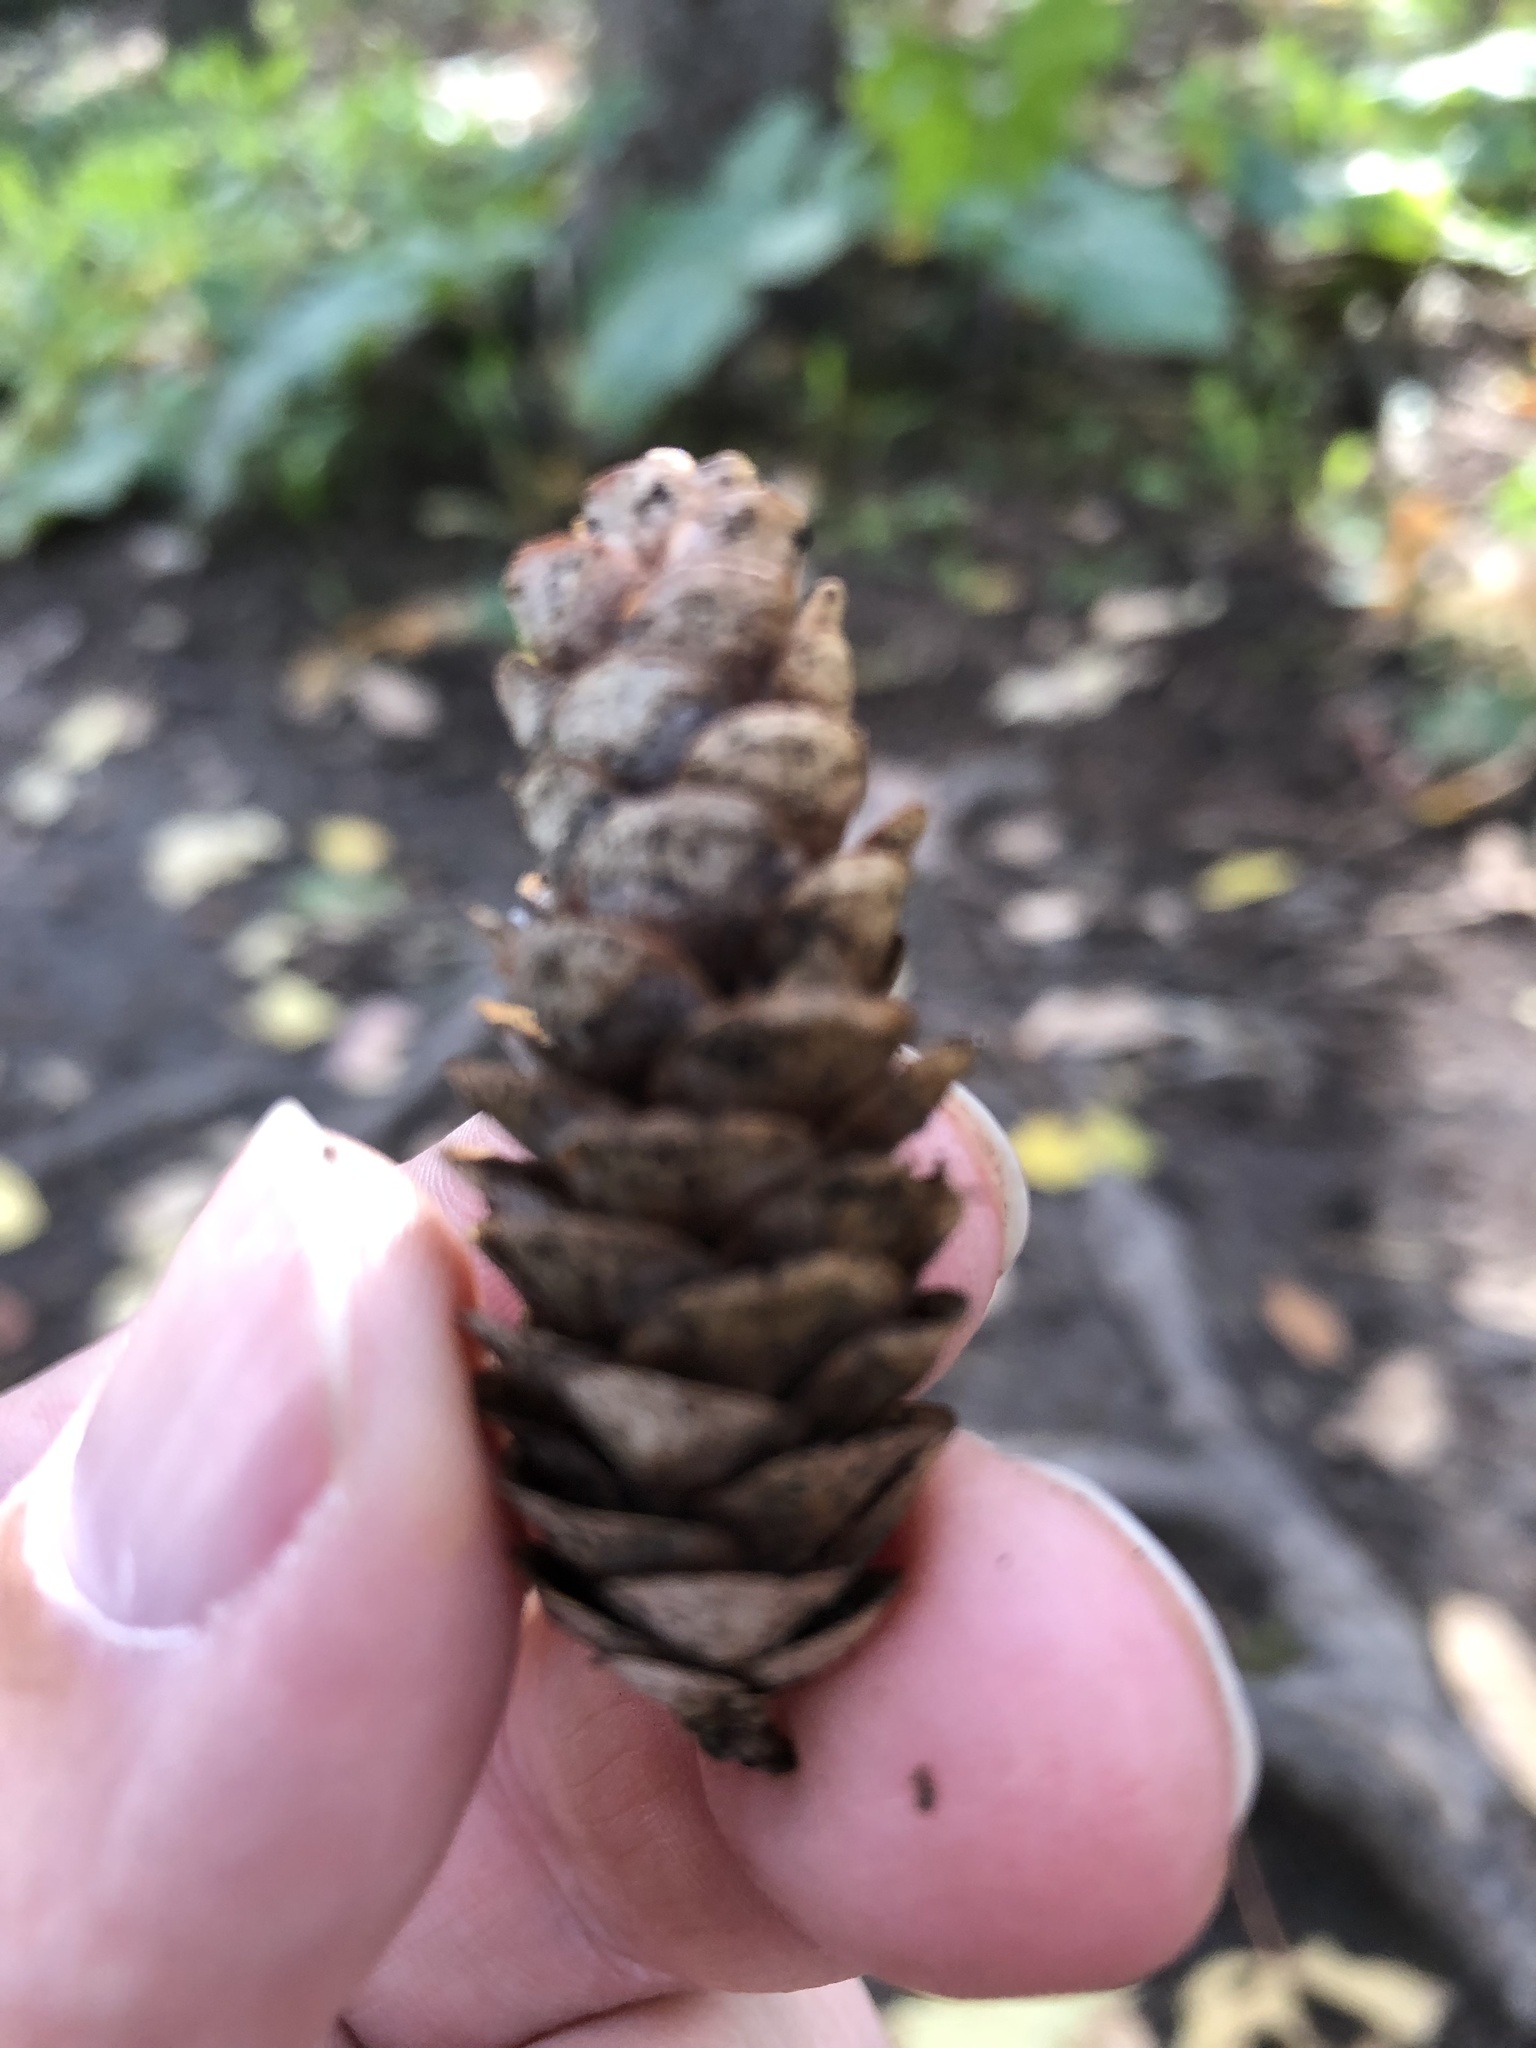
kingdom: Plantae
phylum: Tracheophyta
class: Pinopsida
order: Pinales
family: Pinaceae
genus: Picea
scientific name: Picea glauca
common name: White spruce
